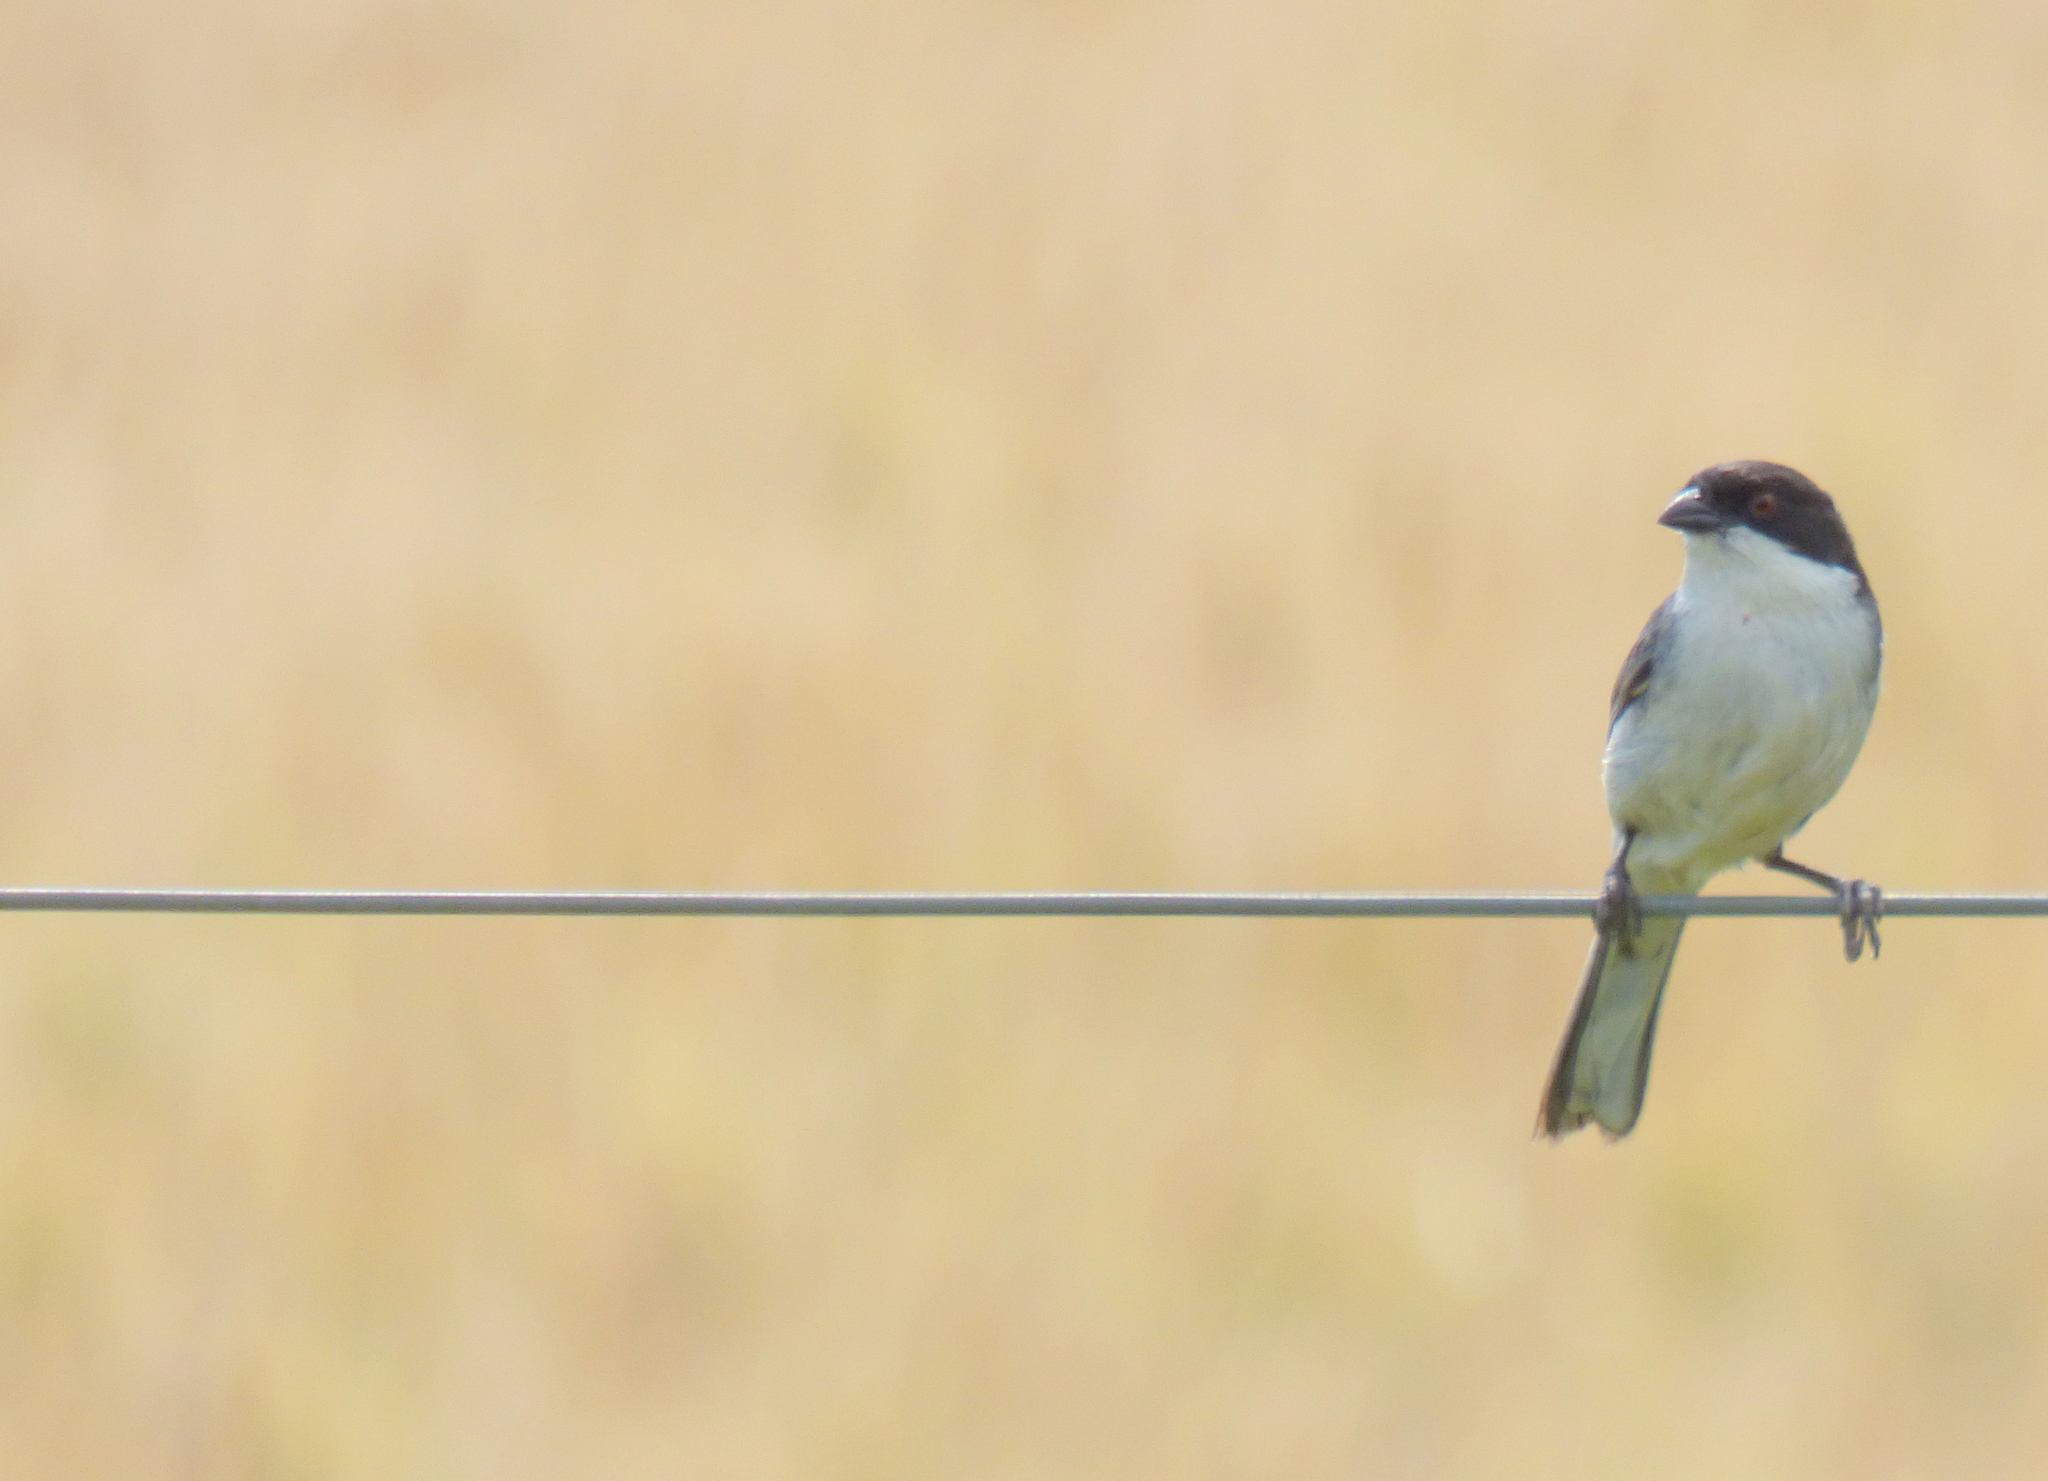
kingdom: Animalia
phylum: Chordata
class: Aves
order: Passeriformes
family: Thraupidae
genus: Microspingus
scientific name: Microspingus melanoleucus
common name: Black-capped warbling-finch
